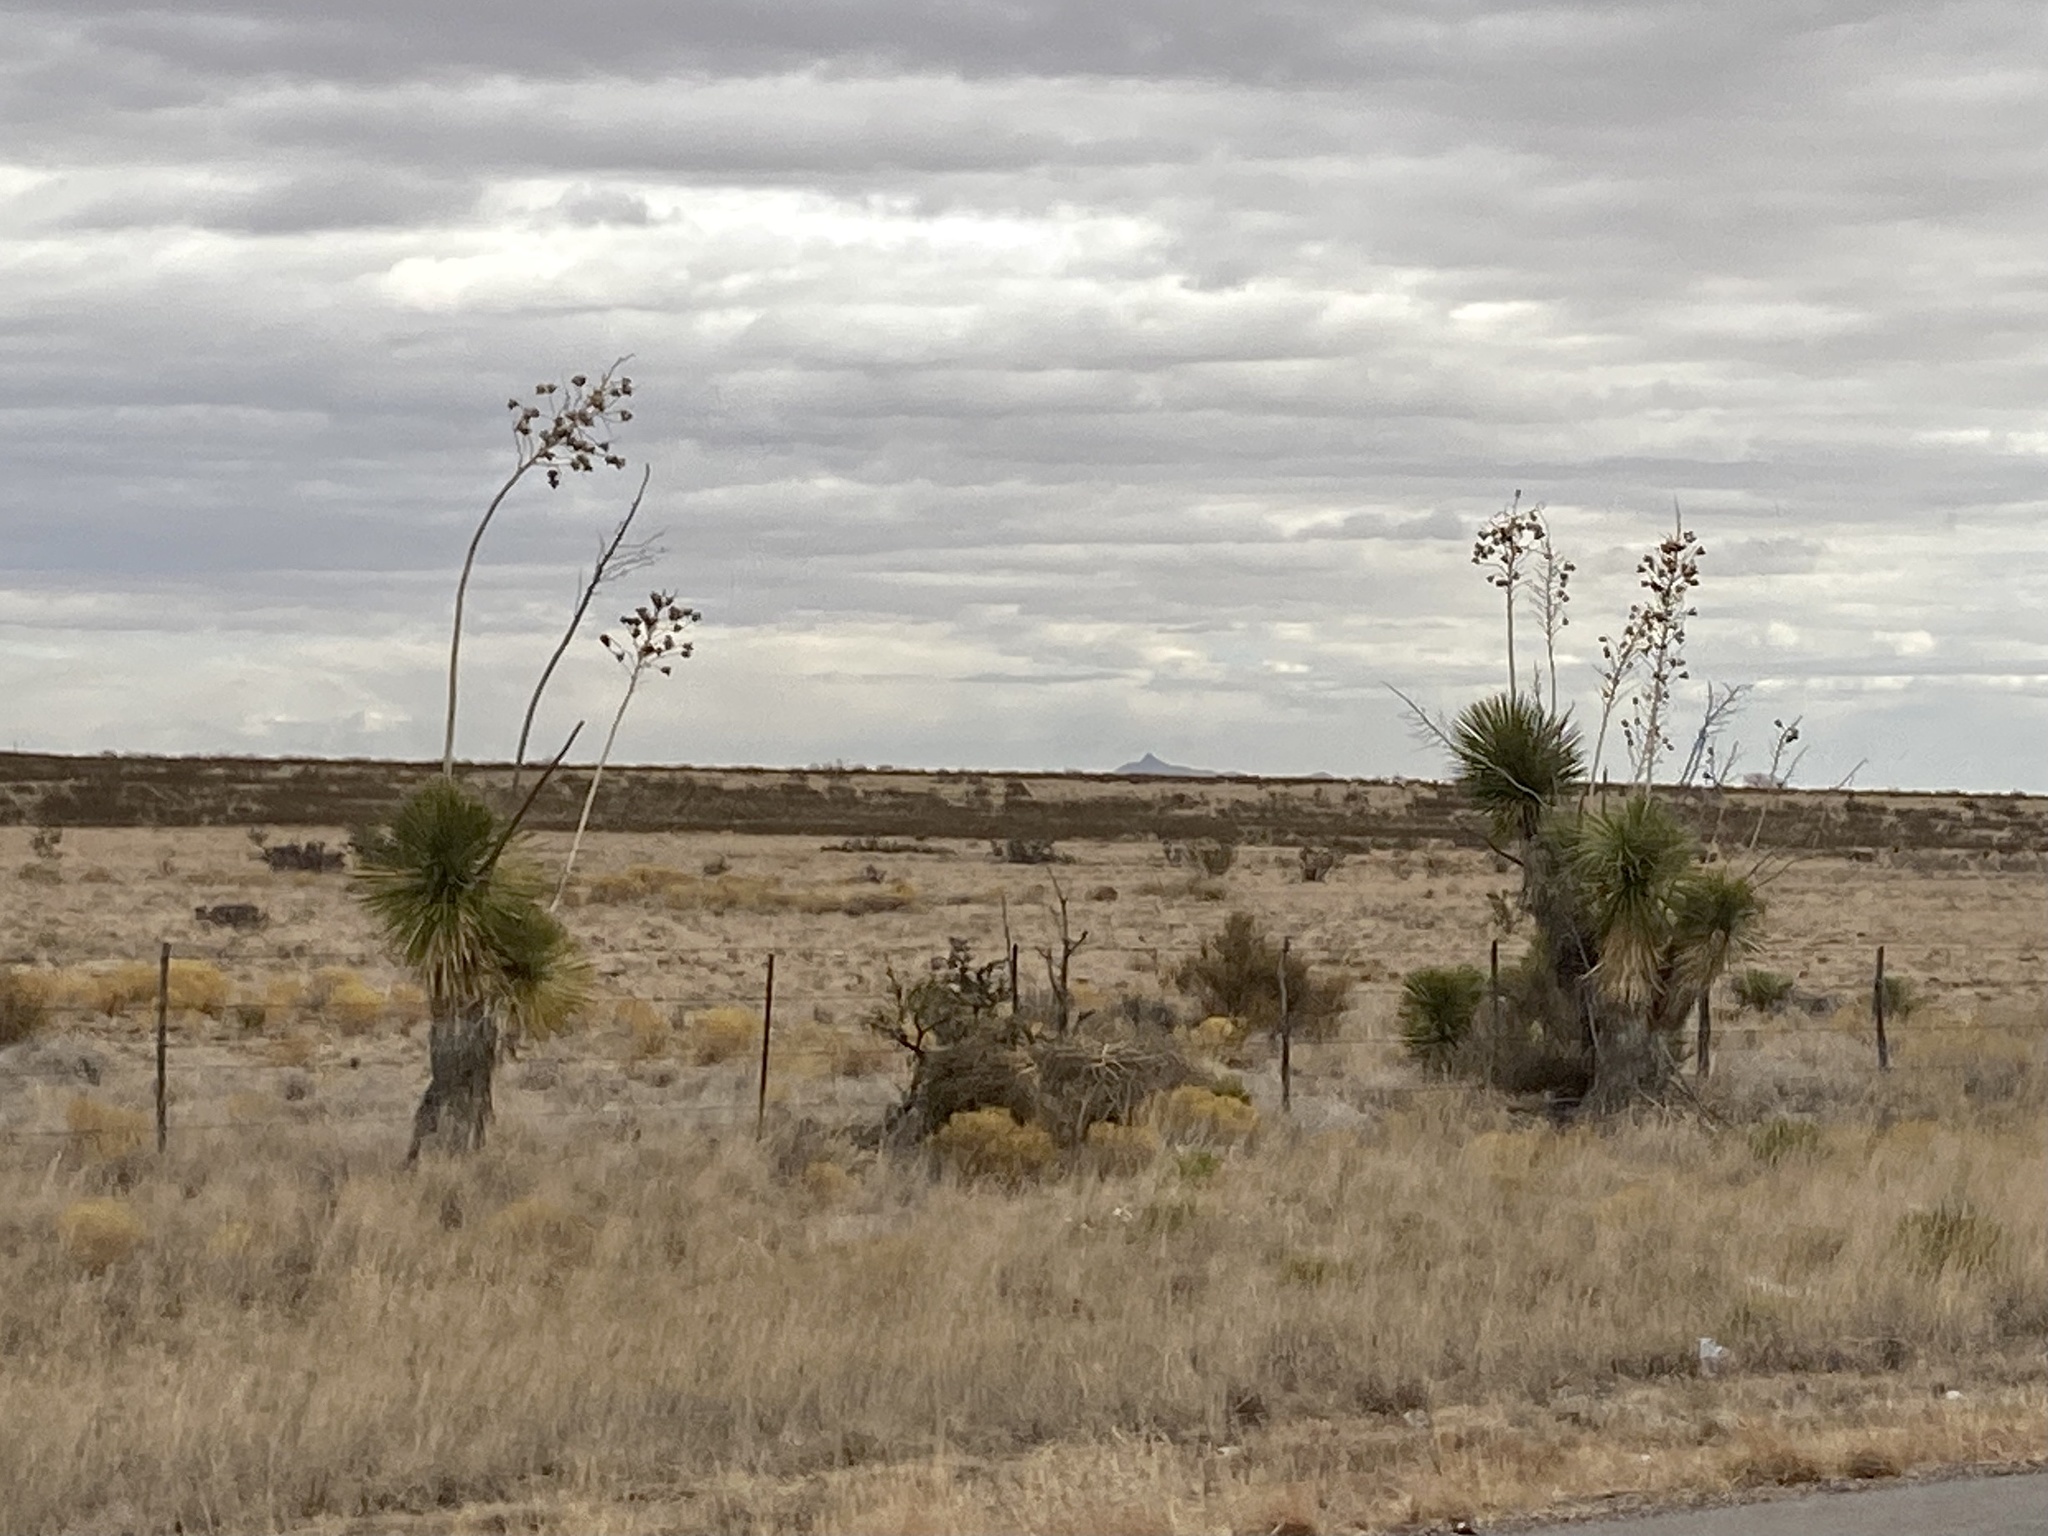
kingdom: Plantae
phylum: Tracheophyta
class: Liliopsida
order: Asparagales
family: Asparagaceae
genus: Yucca
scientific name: Yucca elata
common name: Palmella
